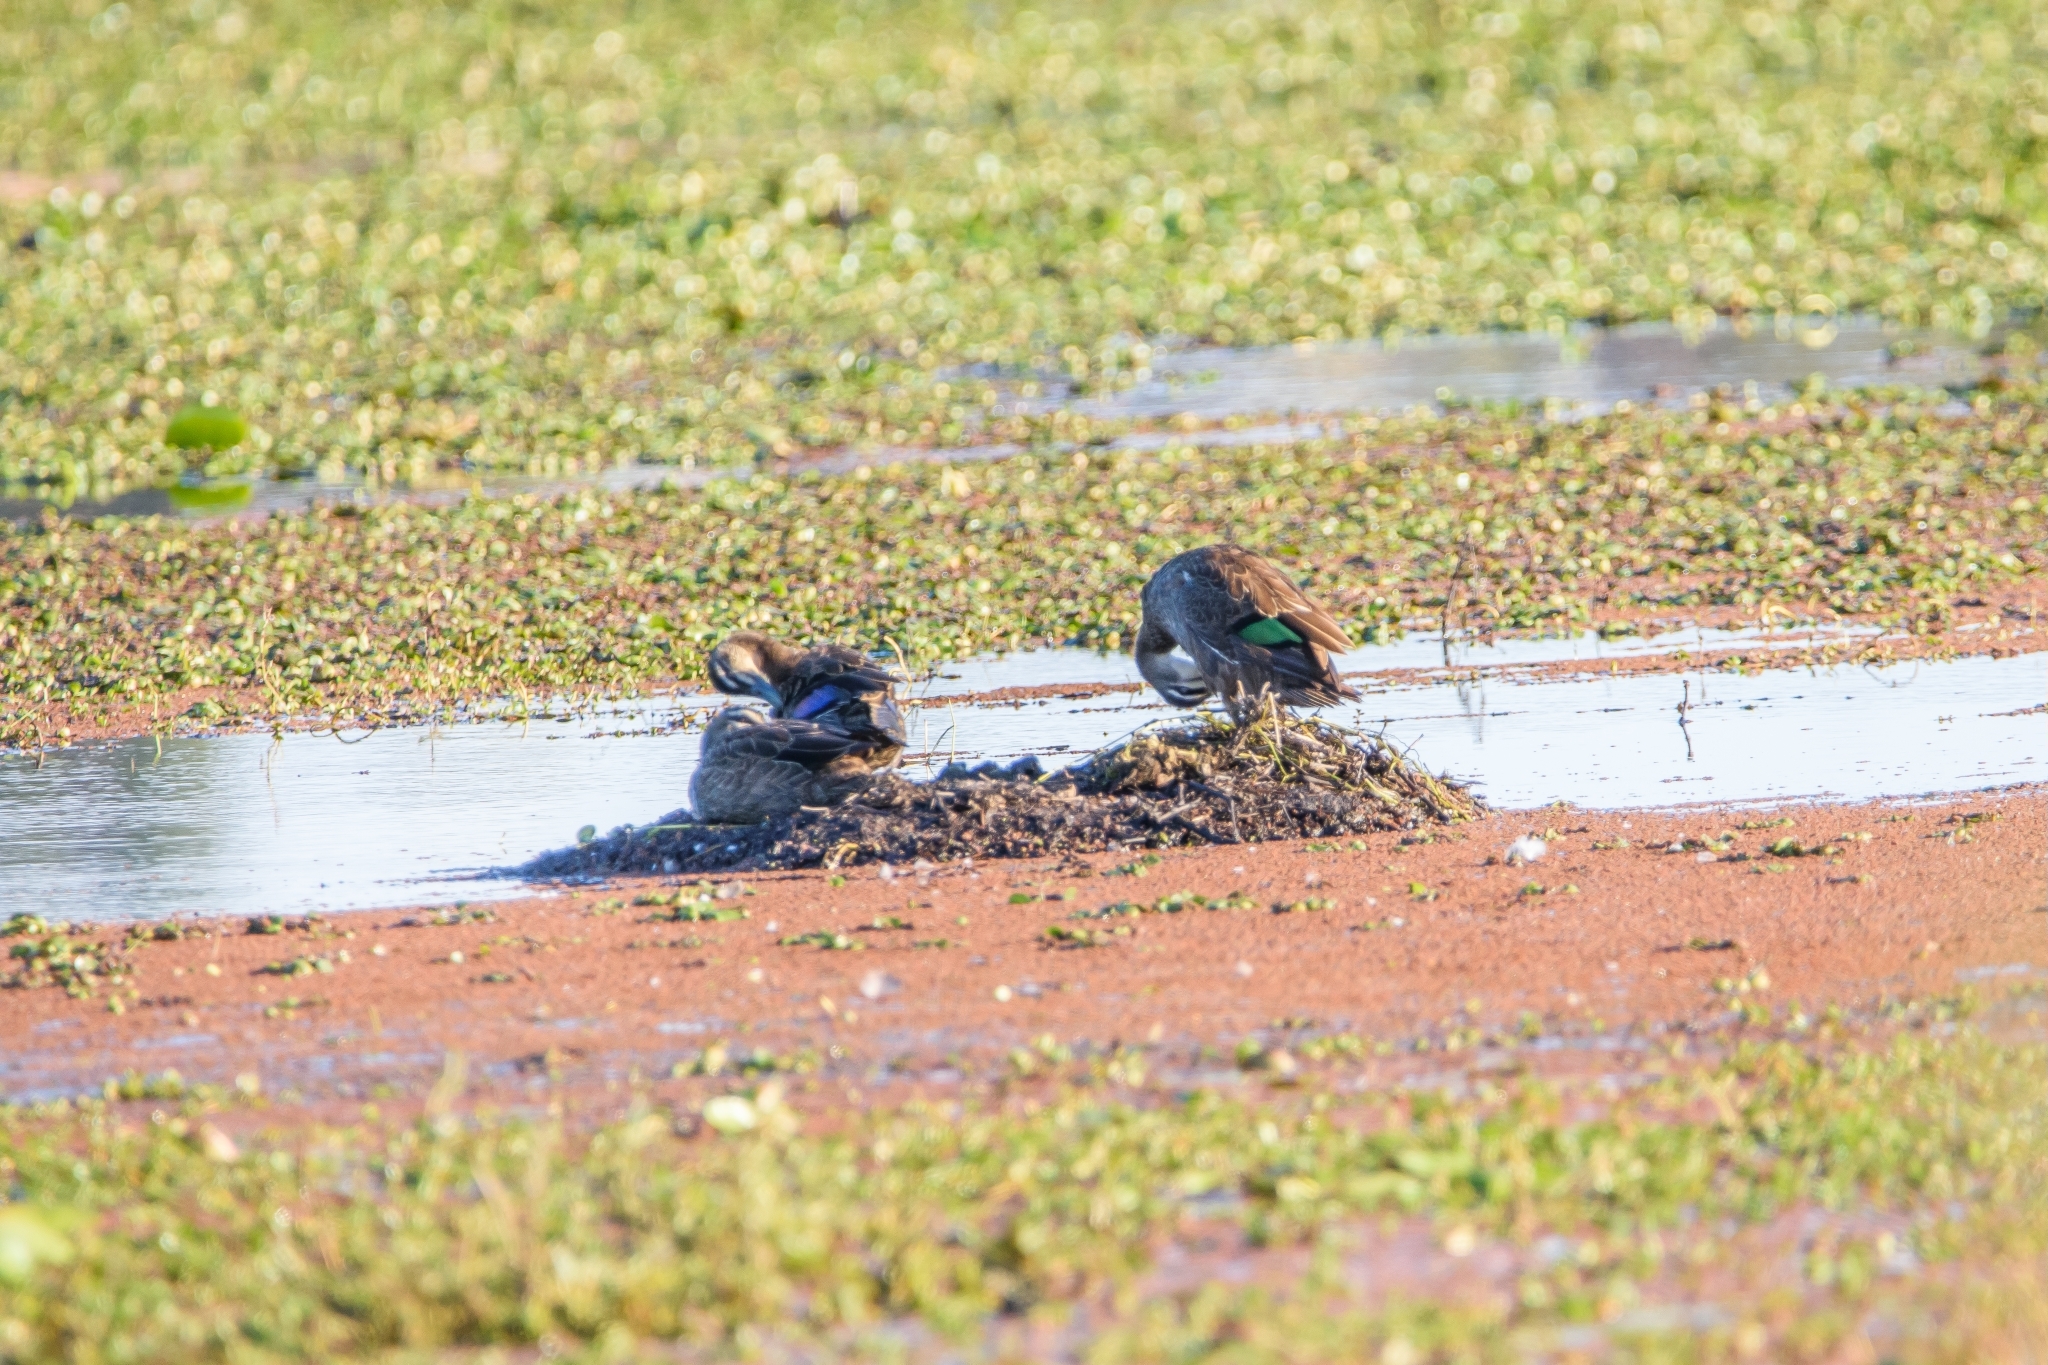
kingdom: Animalia
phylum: Chordata
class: Aves
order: Anseriformes
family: Anatidae
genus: Anas
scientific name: Anas superciliosa
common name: Pacific black duck
